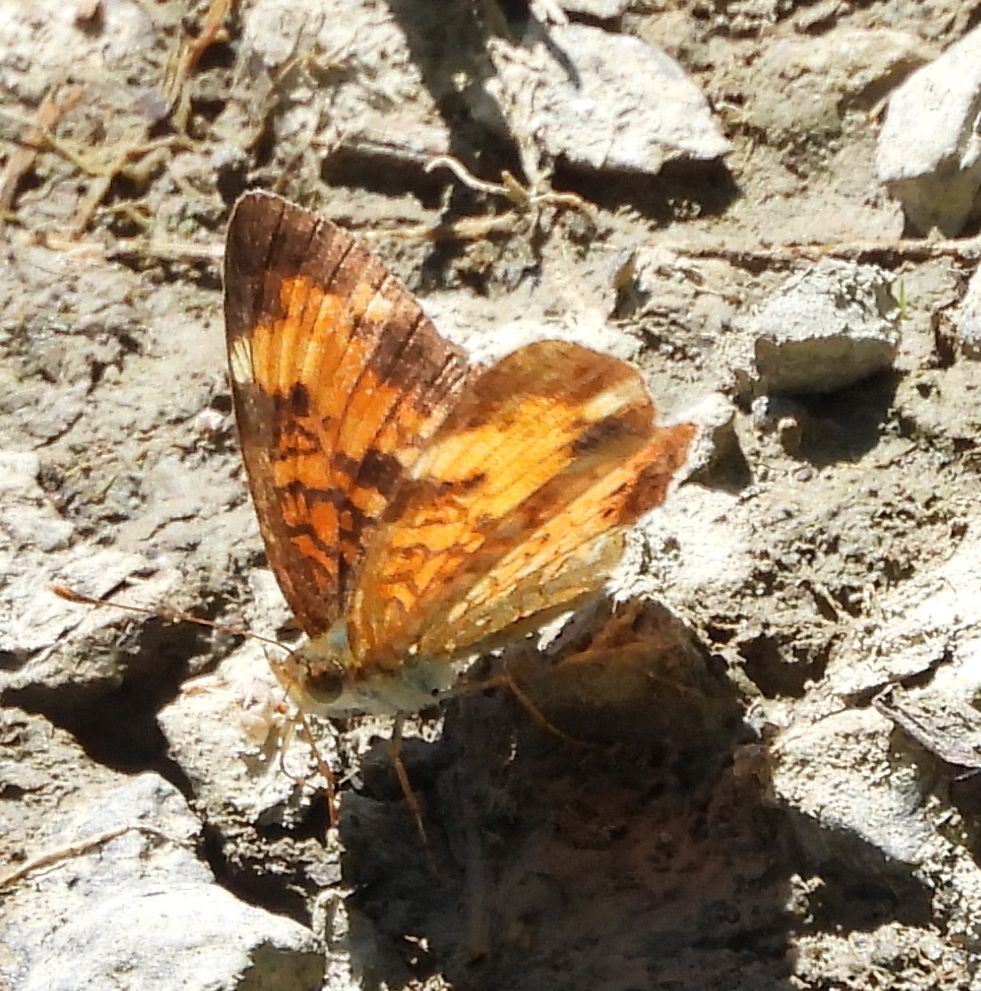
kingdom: Animalia
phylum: Arthropoda
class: Insecta
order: Lepidoptera
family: Nymphalidae
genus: Phyciodes
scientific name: Phyciodes tharos
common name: Pearl crescent
